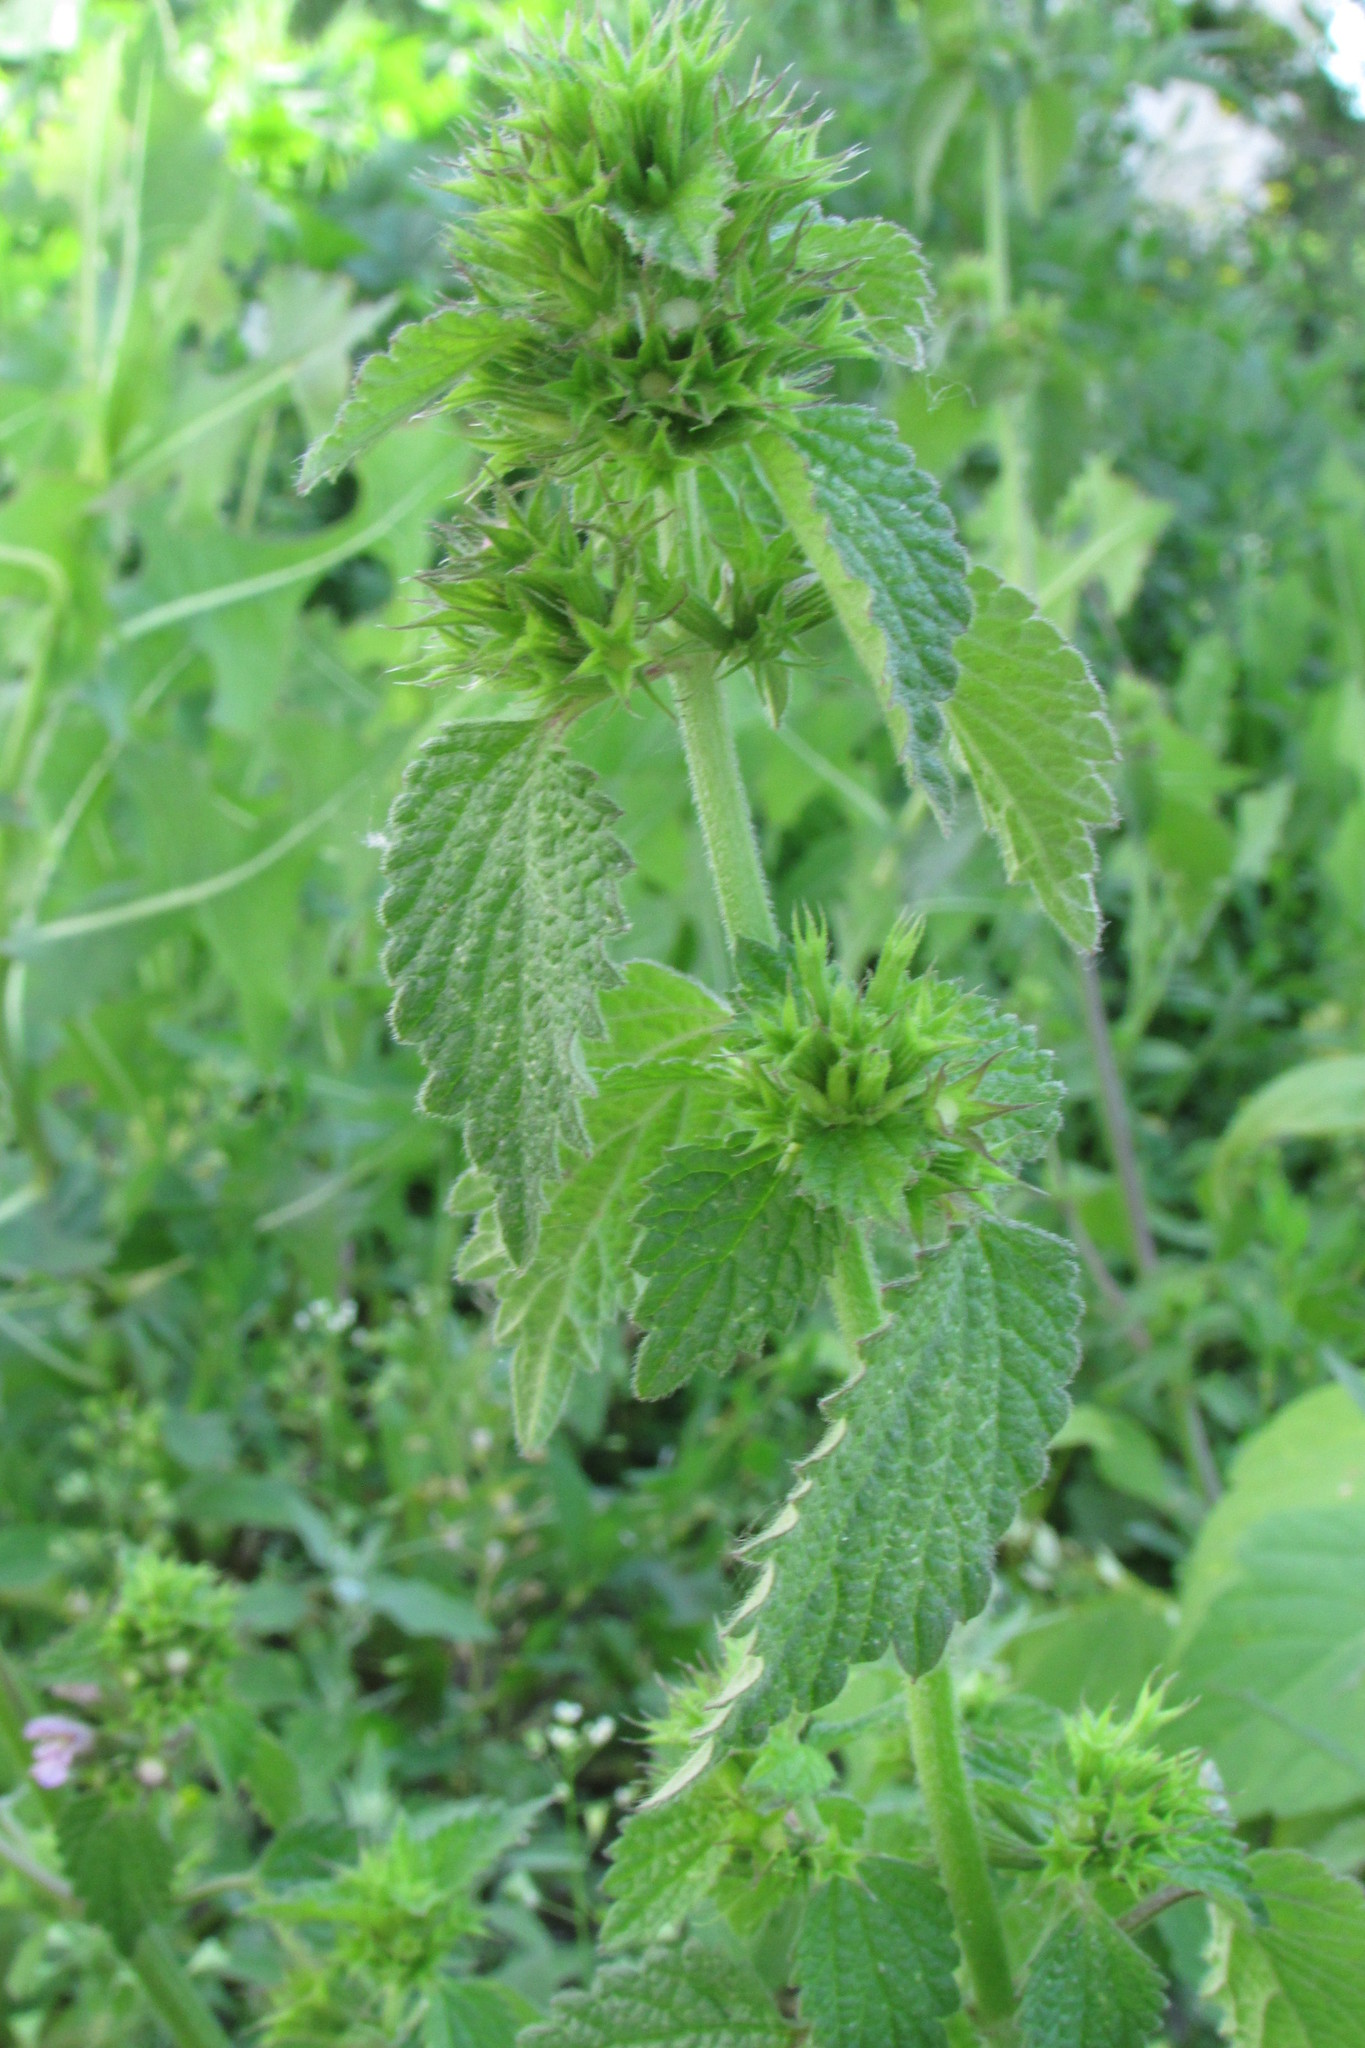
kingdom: Plantae
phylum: Tracheophyta
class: Magnoliopsida
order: Lamiales
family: Lamiaceae
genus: Ballota
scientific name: Ballota nigra
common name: Black horehound
